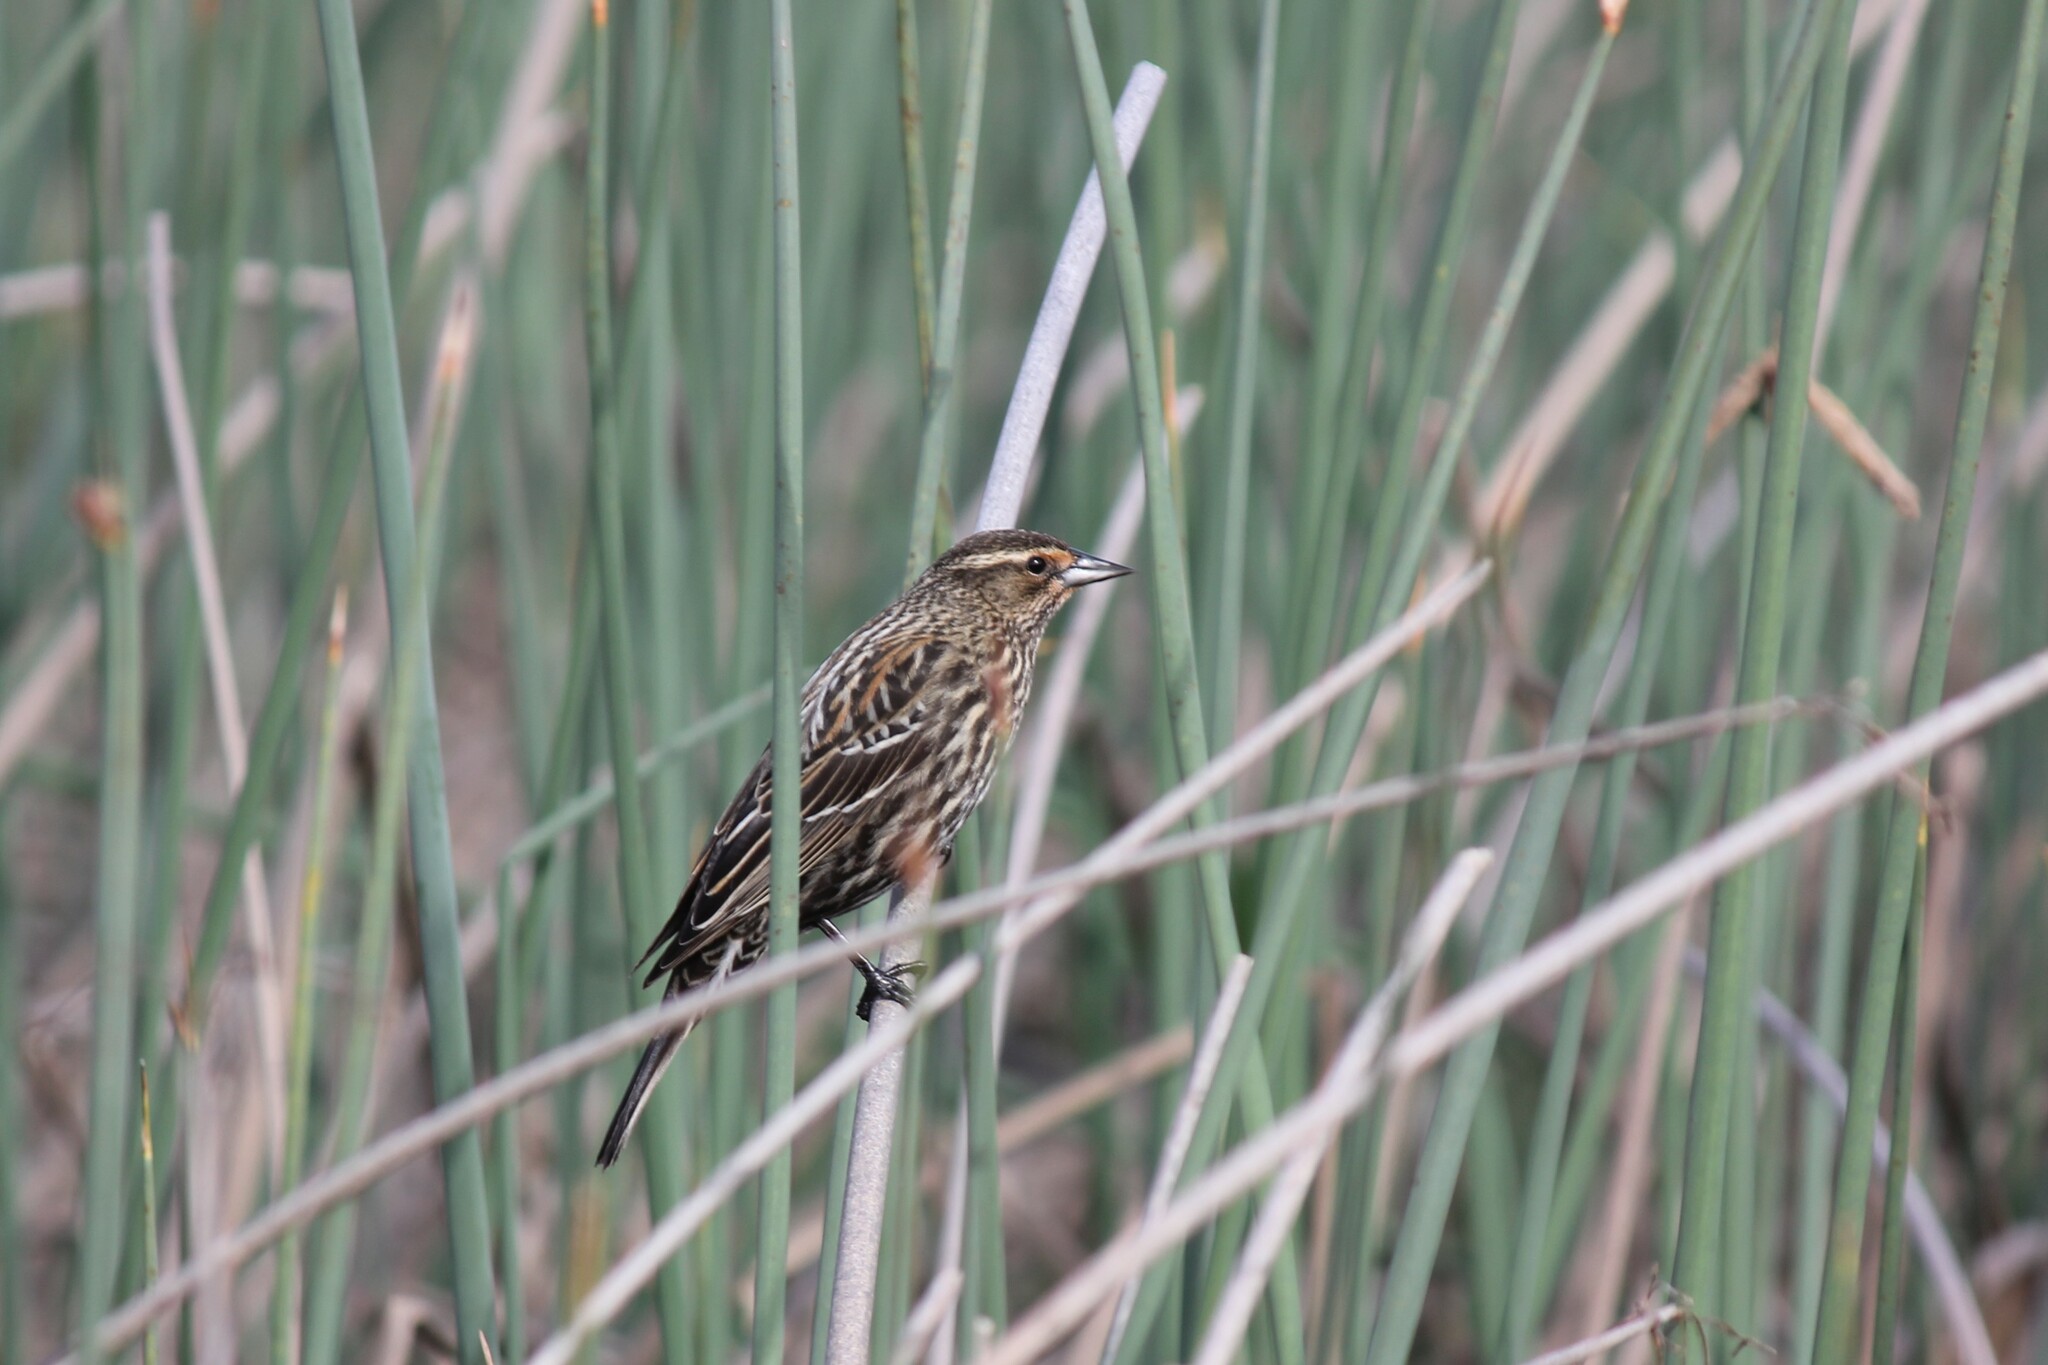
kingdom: Animalia
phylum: Chordata
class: Aves
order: Passeriformes
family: Icteridae
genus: Agelaius
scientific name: Agelaius phoeniceus
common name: Red-winged blackbird
